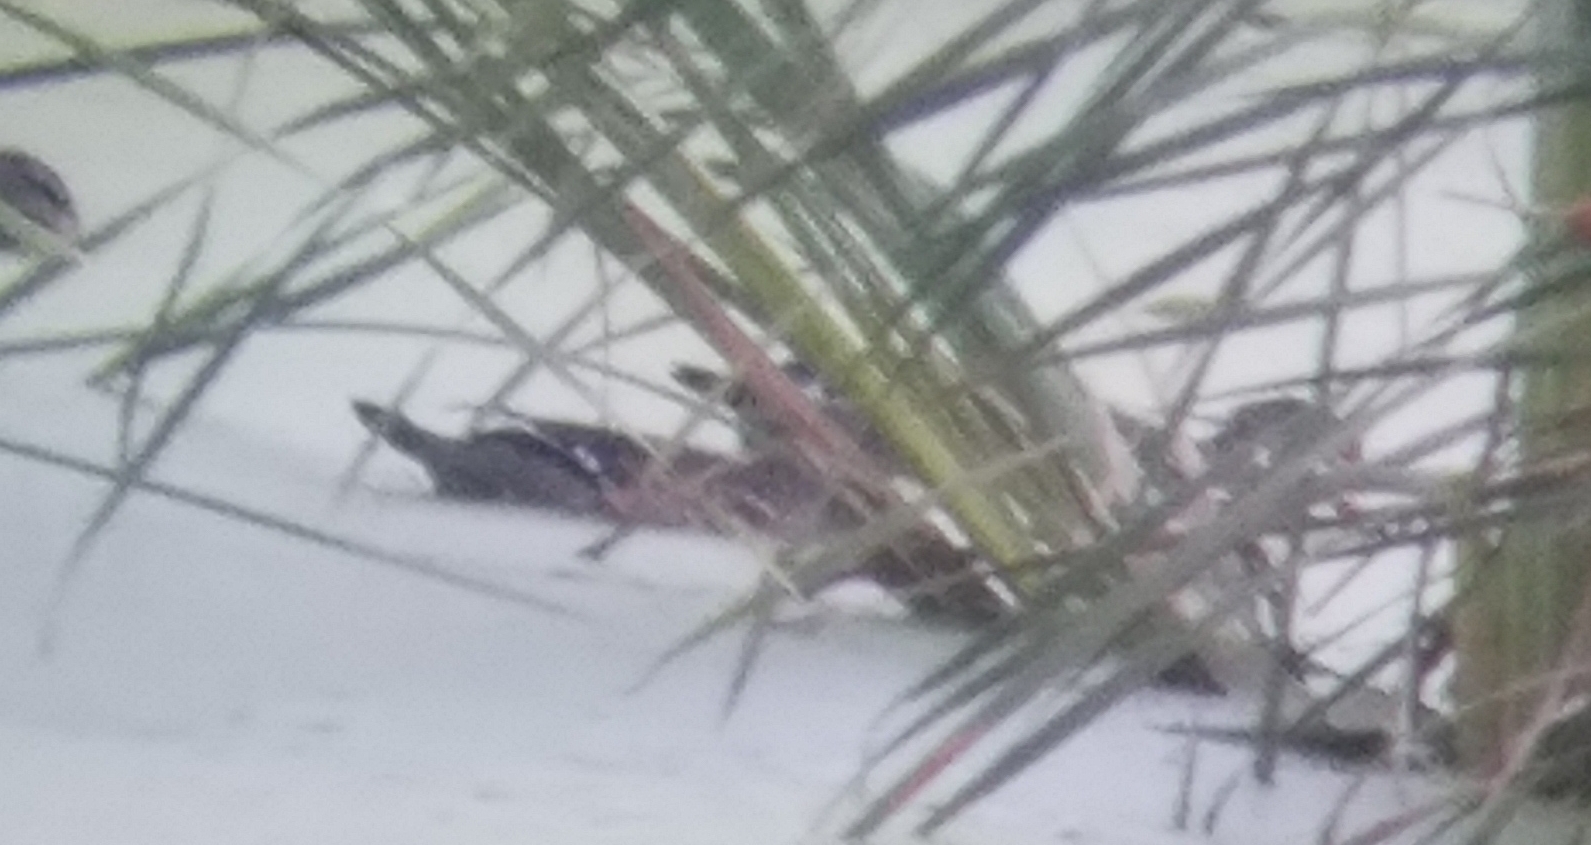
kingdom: Animalia
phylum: Chordata
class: Aves
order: Anseriformes
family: Anatidae
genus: Aix
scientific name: Aix sponsa
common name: Wood duck
